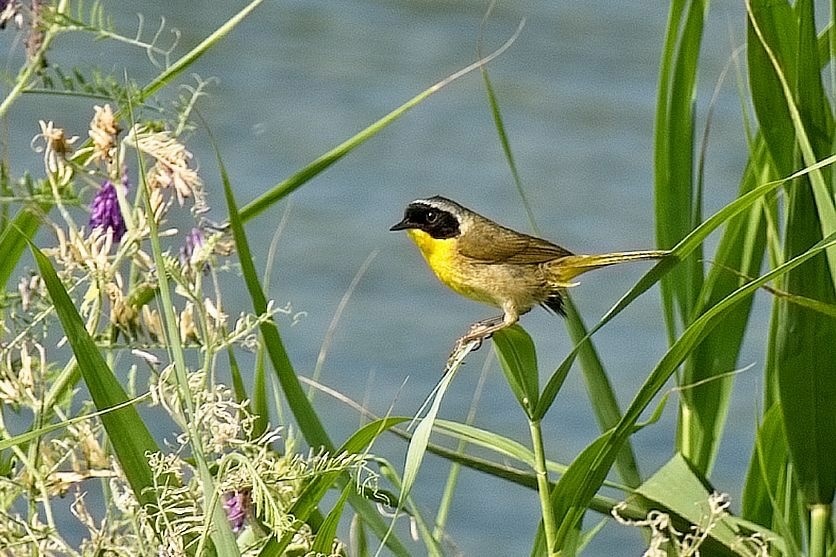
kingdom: Animalia
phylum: Chordata
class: Aves
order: Passeriformes
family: Parulidae
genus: Geothlypis
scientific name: Geothlypis trichas
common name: Common yellowthroat
